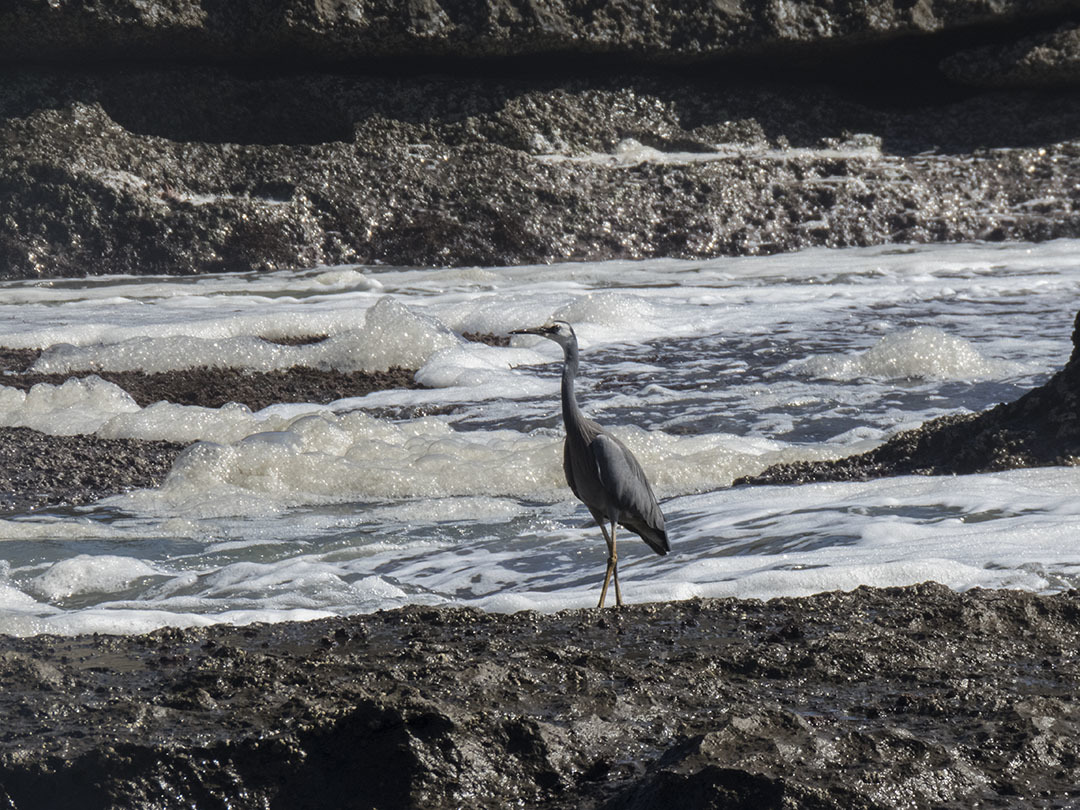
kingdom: Animalia
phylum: Chordata
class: Aves
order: Pelecaniformes
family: Ardeidae
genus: Egretta
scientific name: Egretta novaehollandiae
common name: White-faced heron
